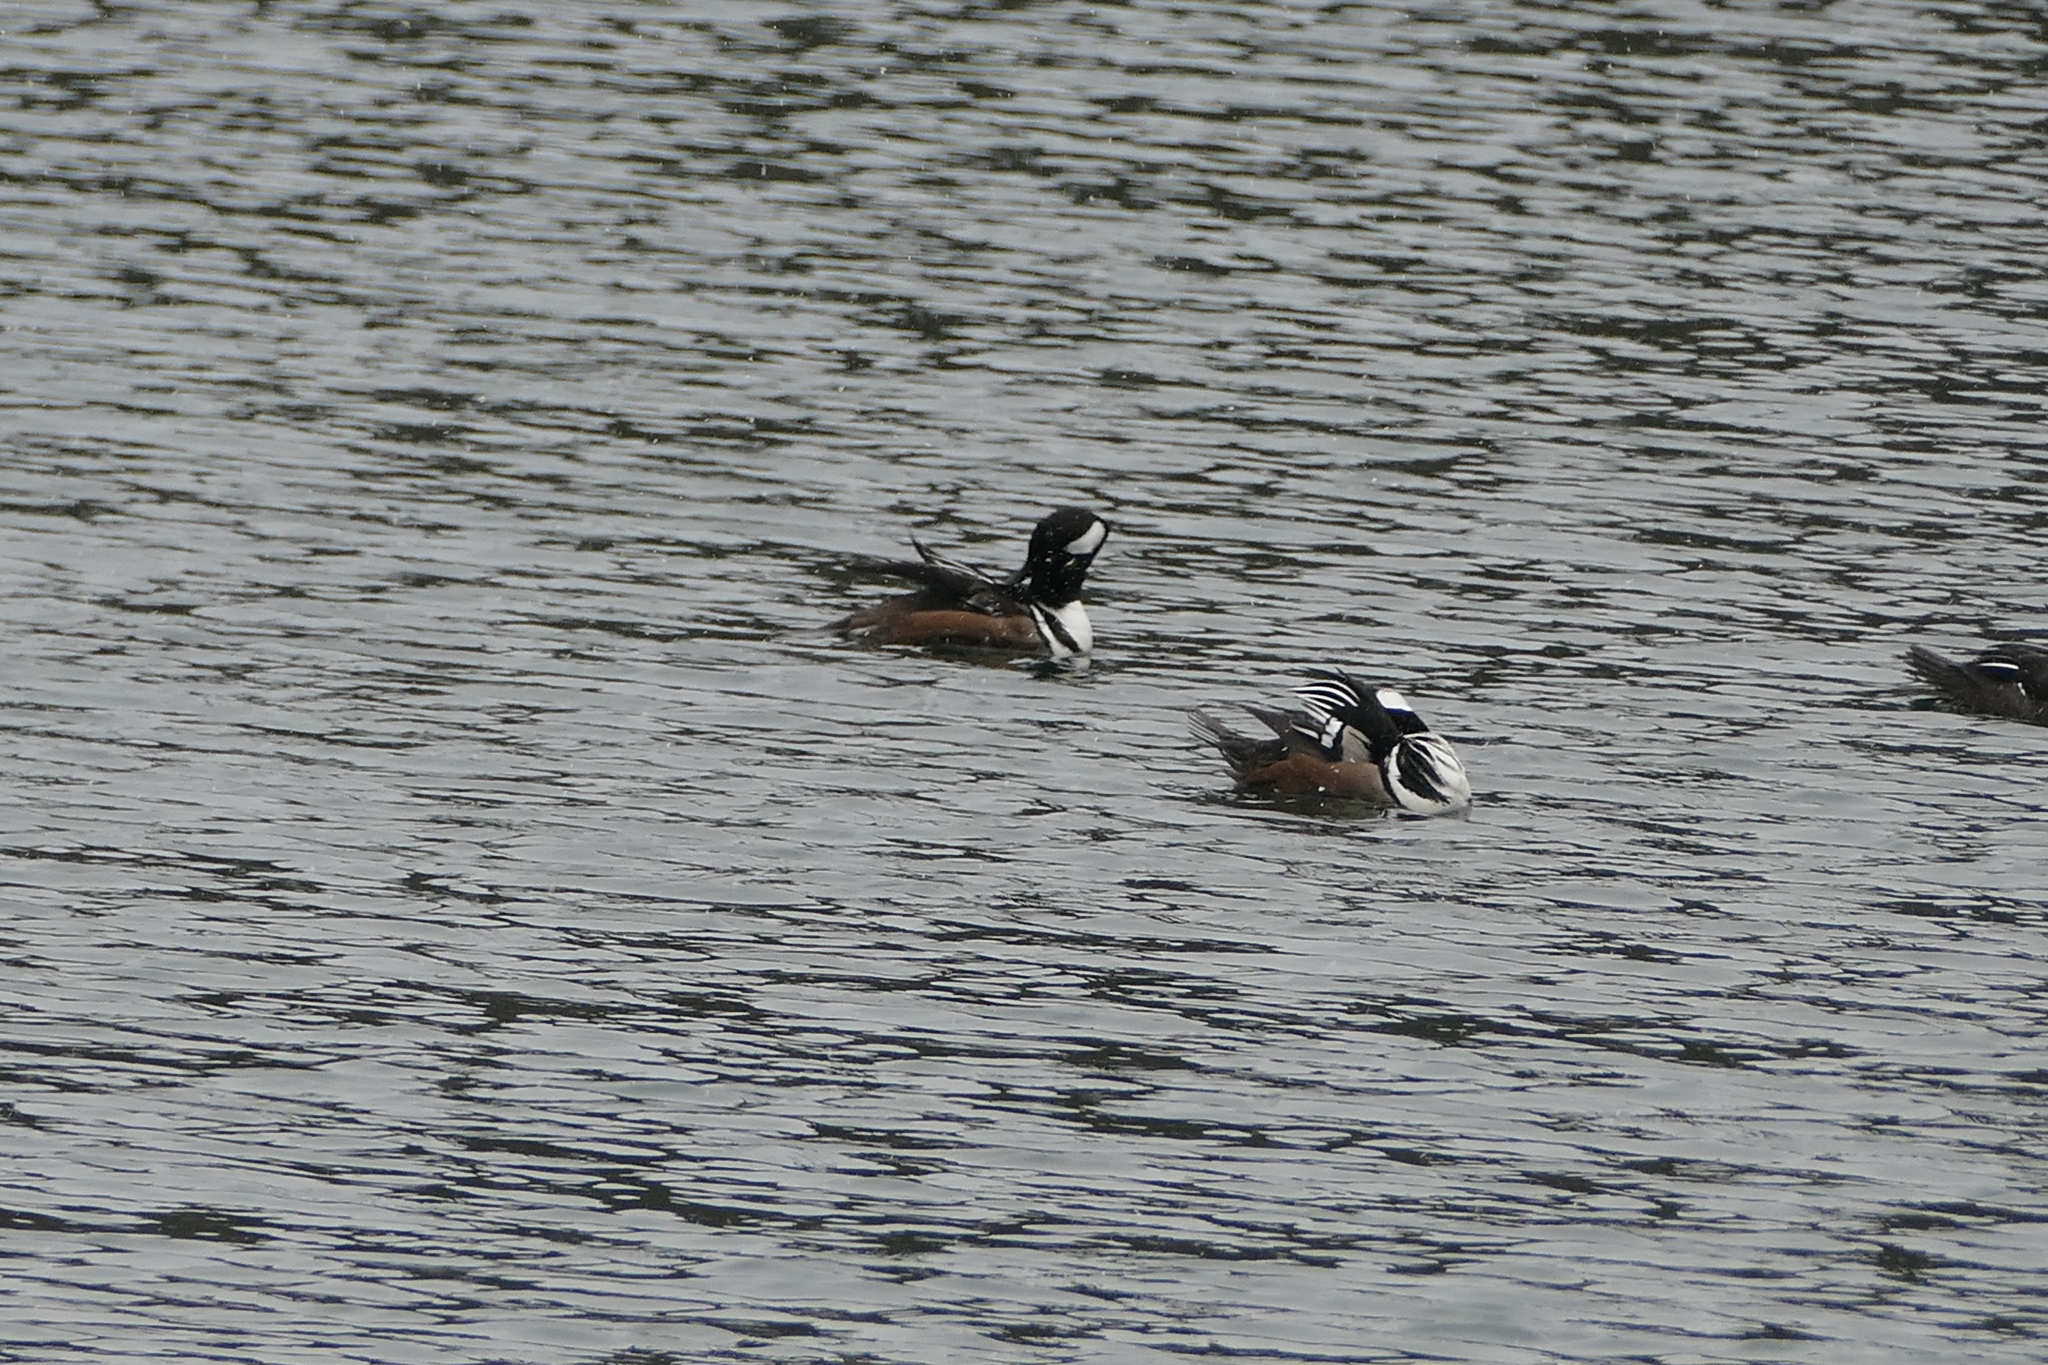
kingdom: Animalia
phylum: Chordata
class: Aves
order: Anseriformes
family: Anatidae
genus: Lophodytes
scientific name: Lophodytes cucullatus
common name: Hooded merganser
